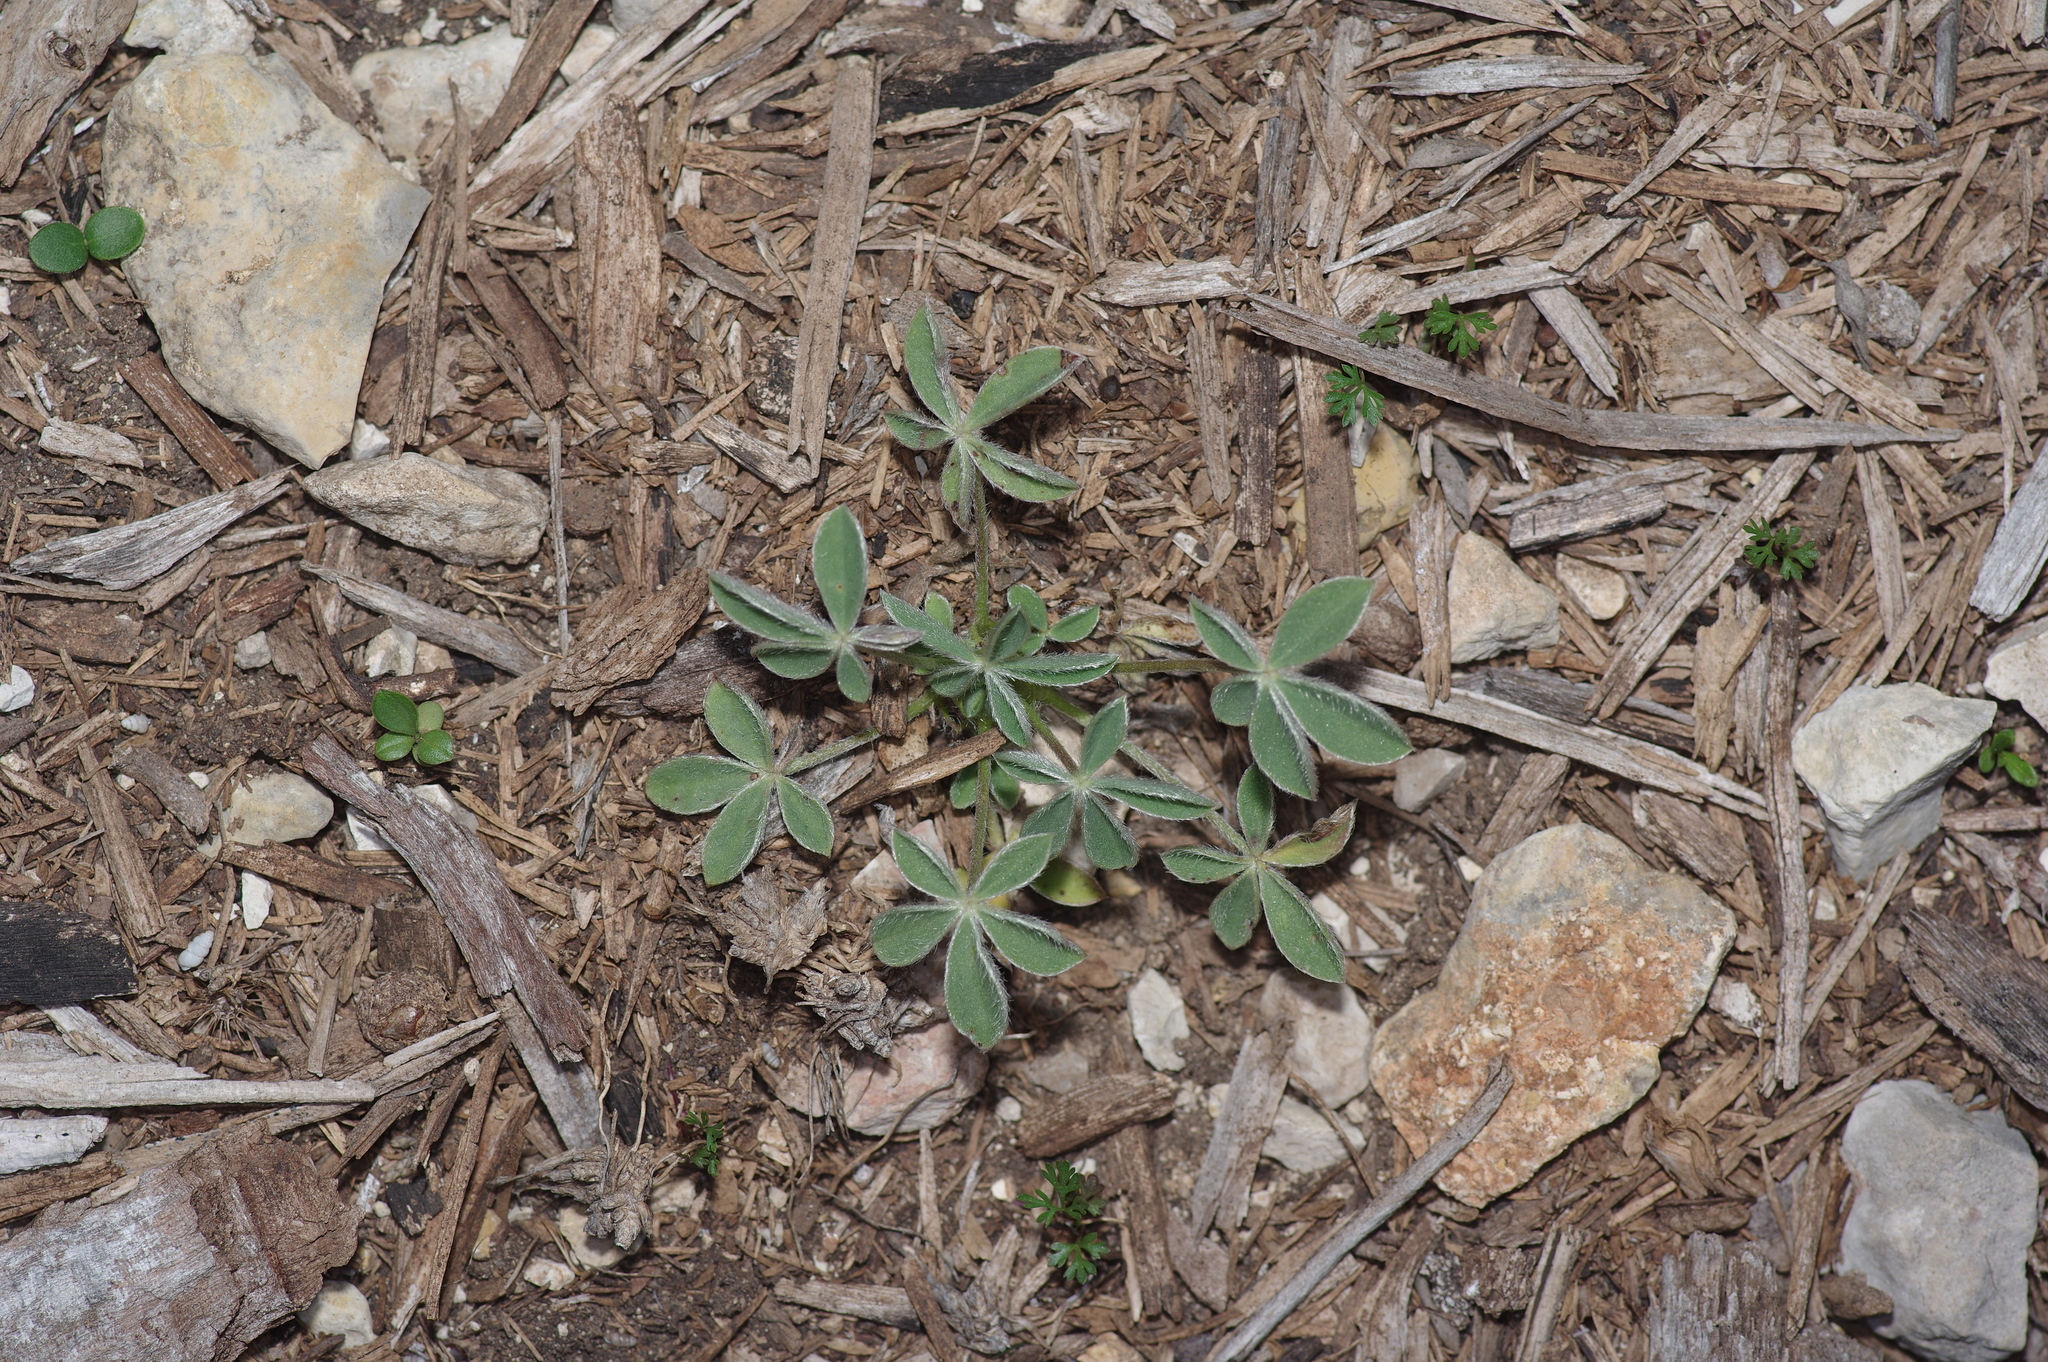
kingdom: Plantae
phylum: Tracheophyta
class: Magnoliopsida
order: Fabales
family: Fabaceae
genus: Lupinus
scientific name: Lupinus texensis
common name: Texas bluebonnet
